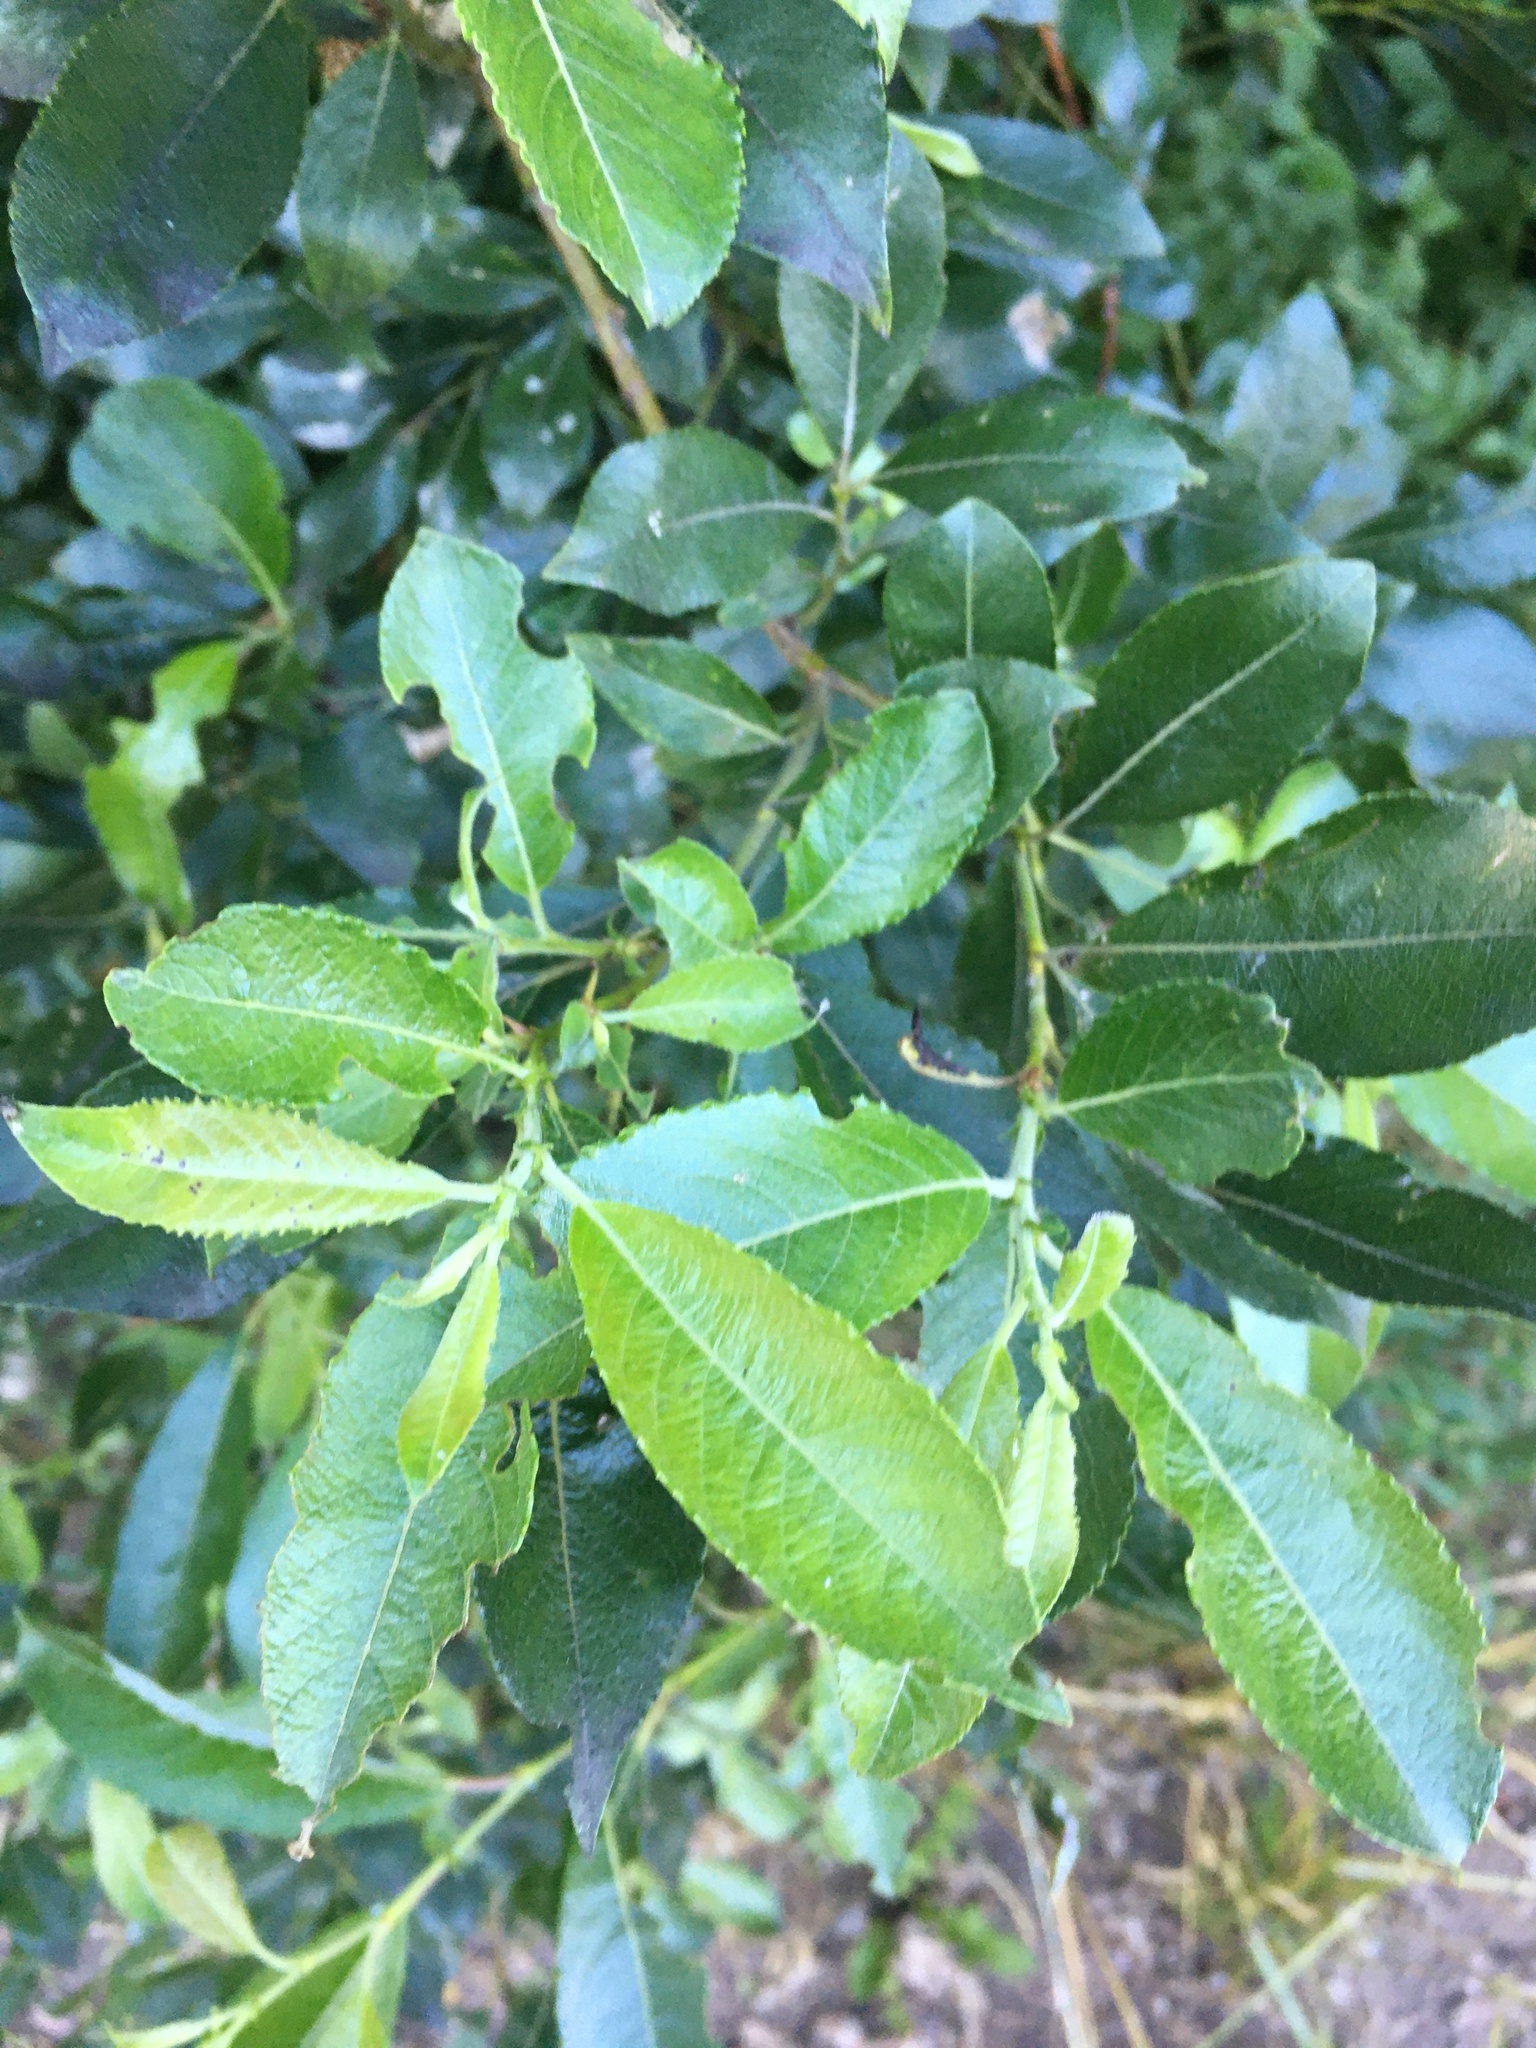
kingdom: Plantae
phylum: Tracheophyta
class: Magnoliopsida
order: Malpighiales
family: Salicaceae
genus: Salix
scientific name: Salix myrsinifolia
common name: Dark-leaved willow
